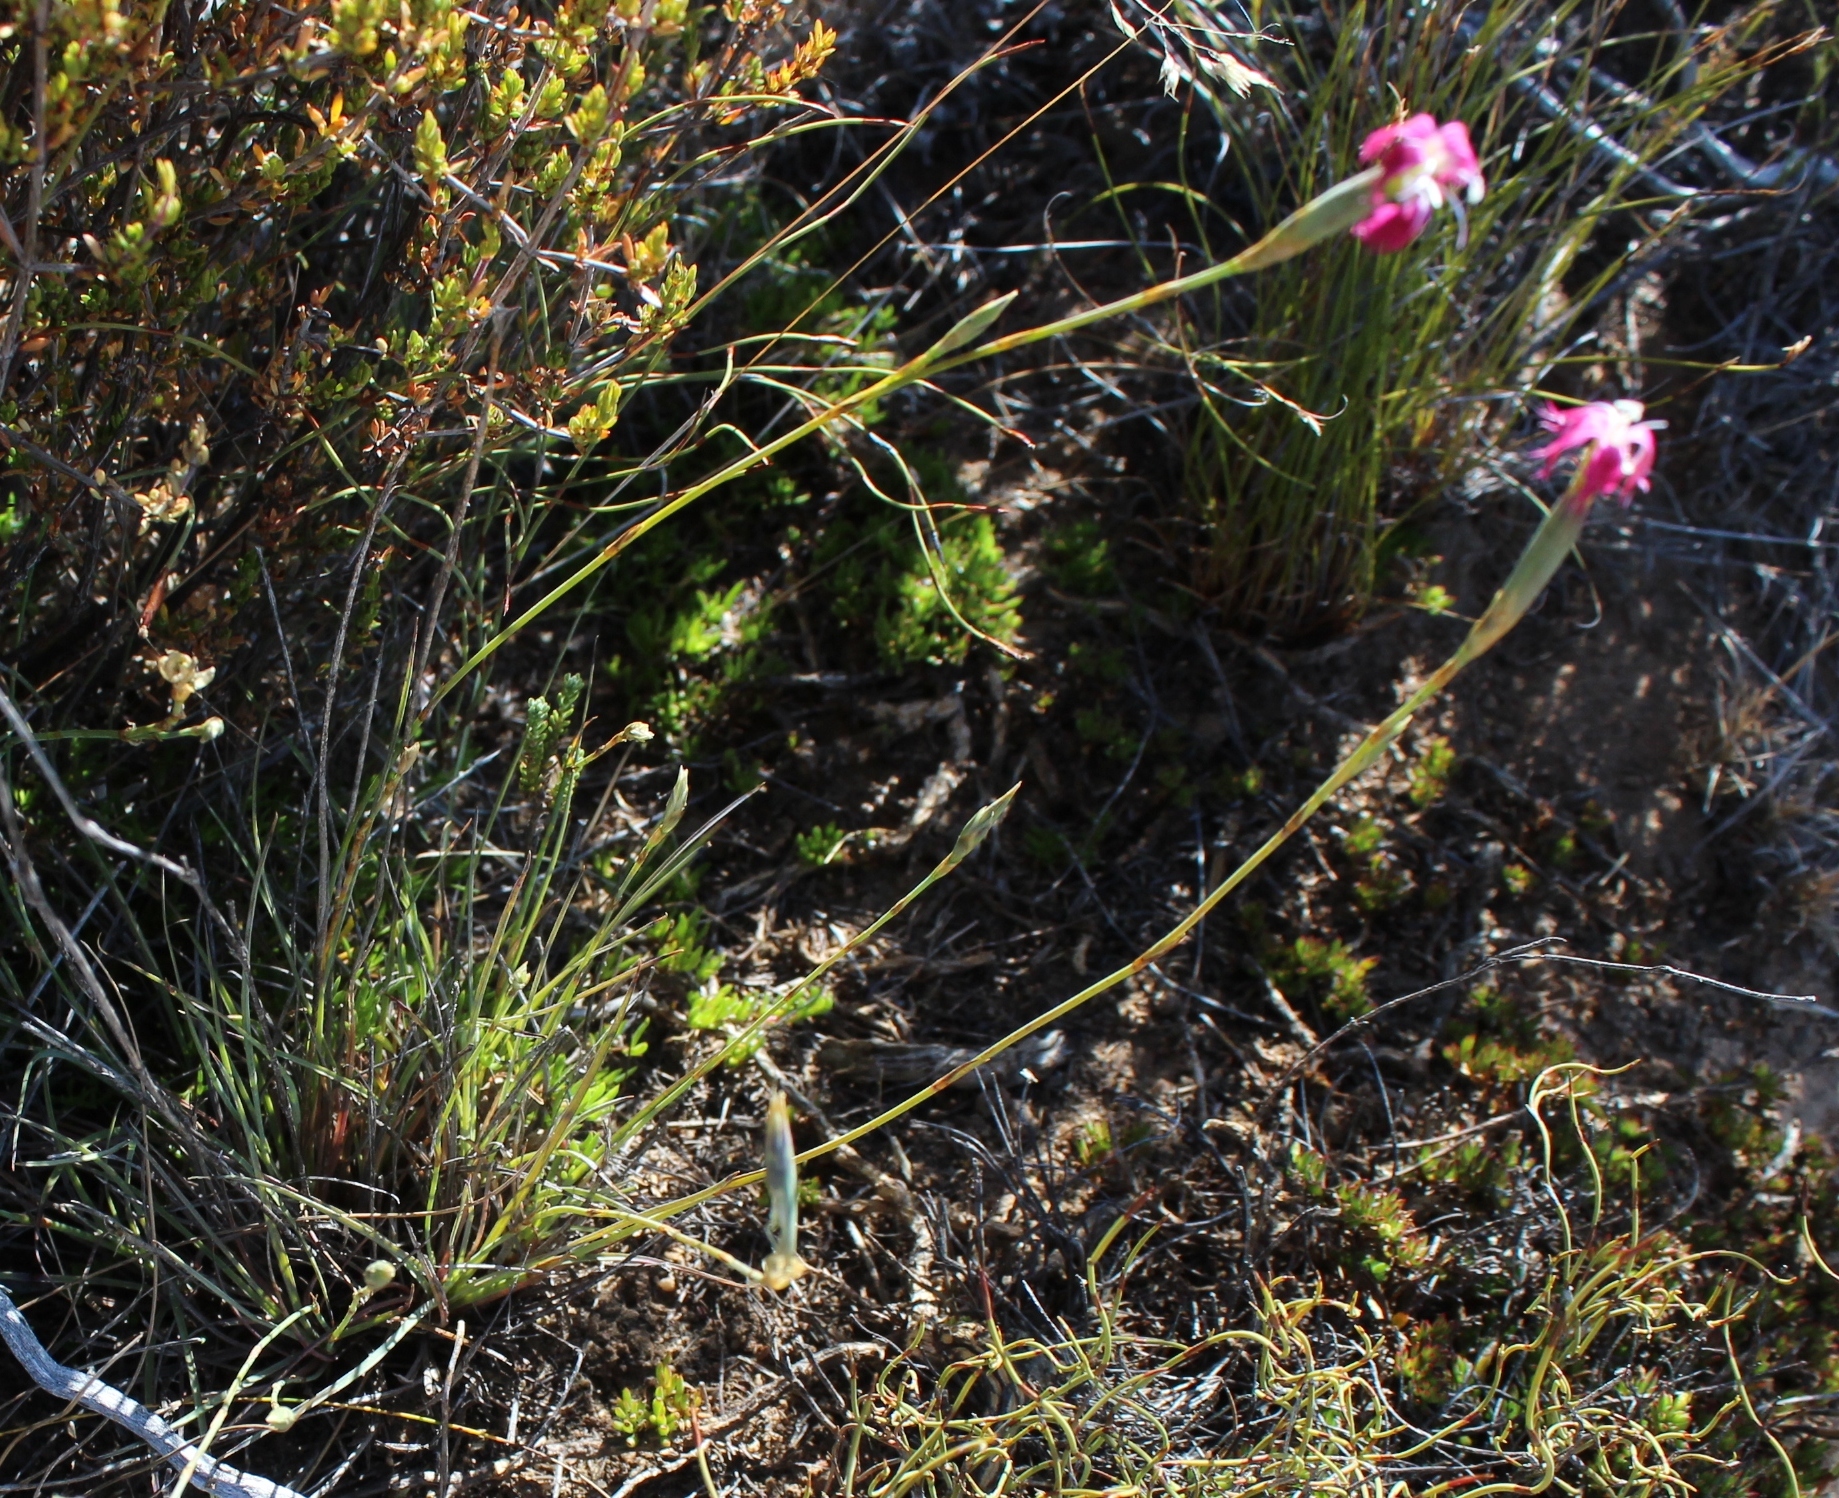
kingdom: Plantae
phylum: Tracheophyta
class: Magnoliopsida
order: Caryophyllales
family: Caryophyllaceae
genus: Dianthus
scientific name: Dianthus bolusii
